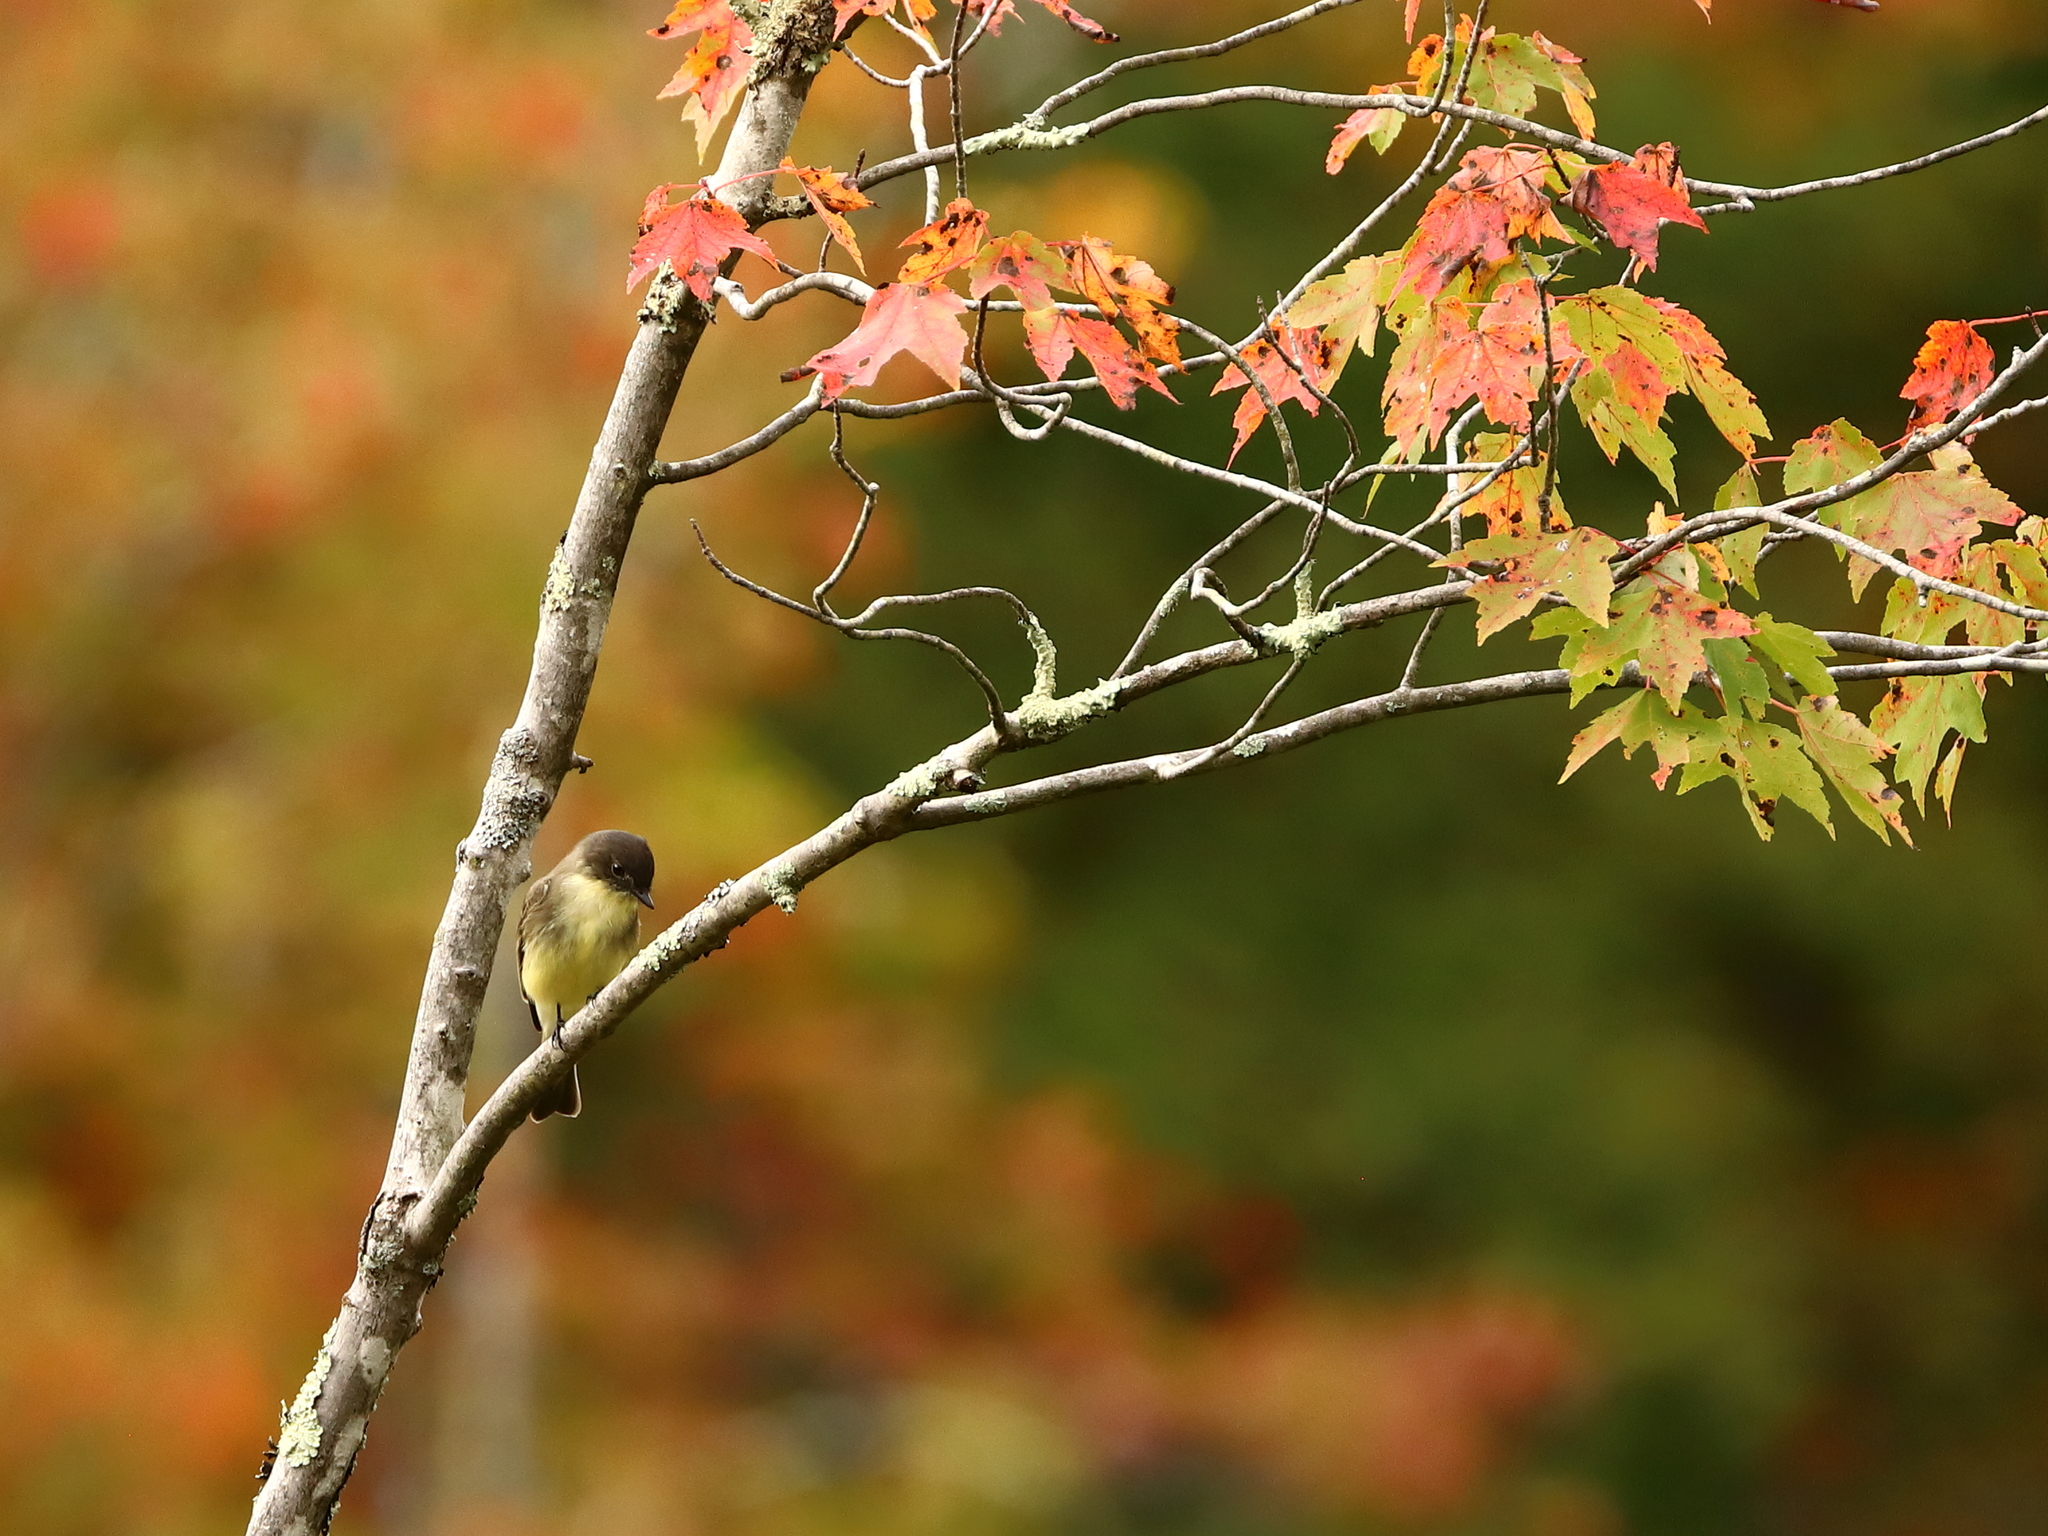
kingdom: Animalia
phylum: Chordata
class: Aves
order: Passeriformes
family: Tyrannidae
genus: Sayornis
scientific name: Sayornis phoebe
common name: Eastern phoebe
